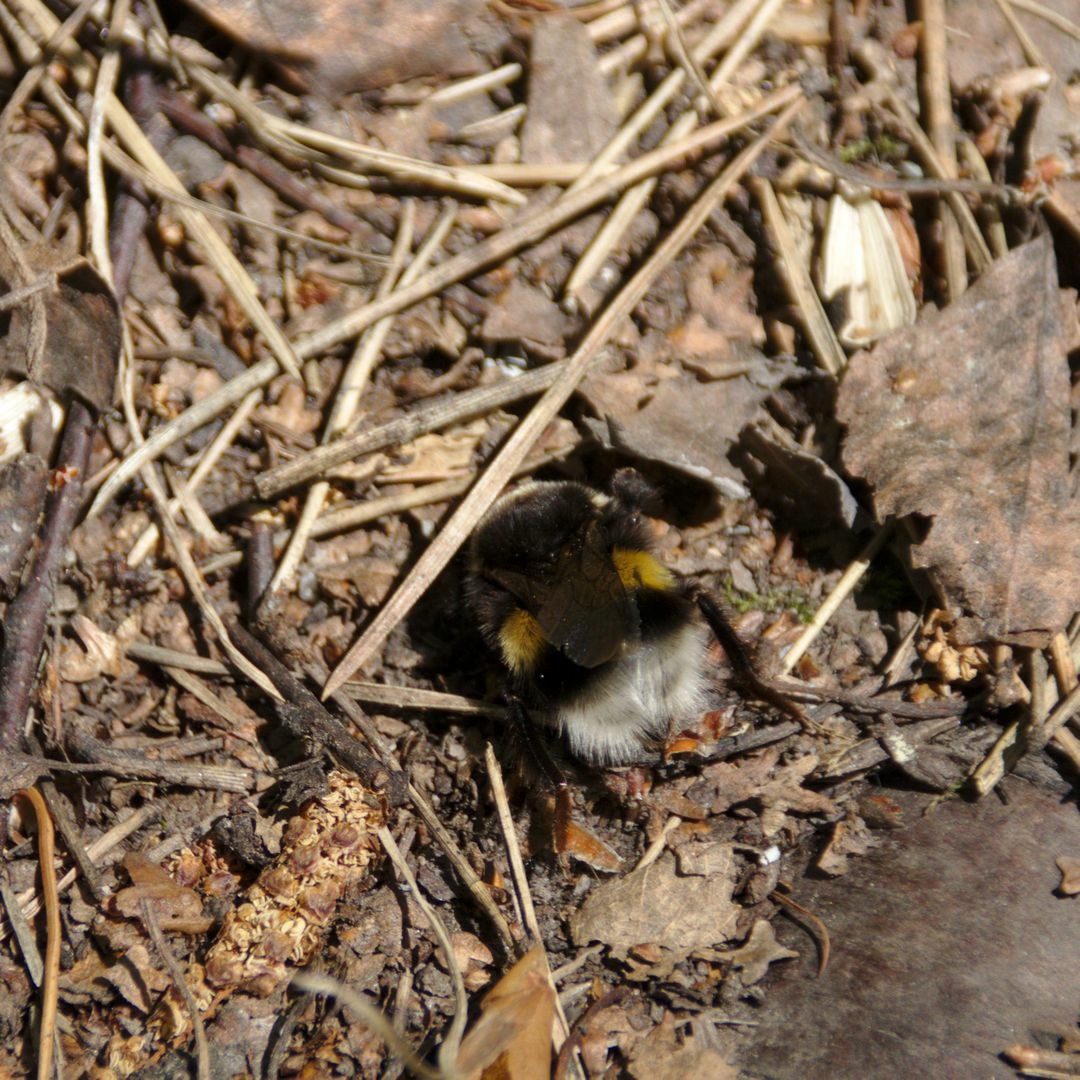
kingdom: Animalia
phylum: Arthropoda
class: Insecta
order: Hymenoptera
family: Apidae
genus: Bombus
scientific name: Bombus
